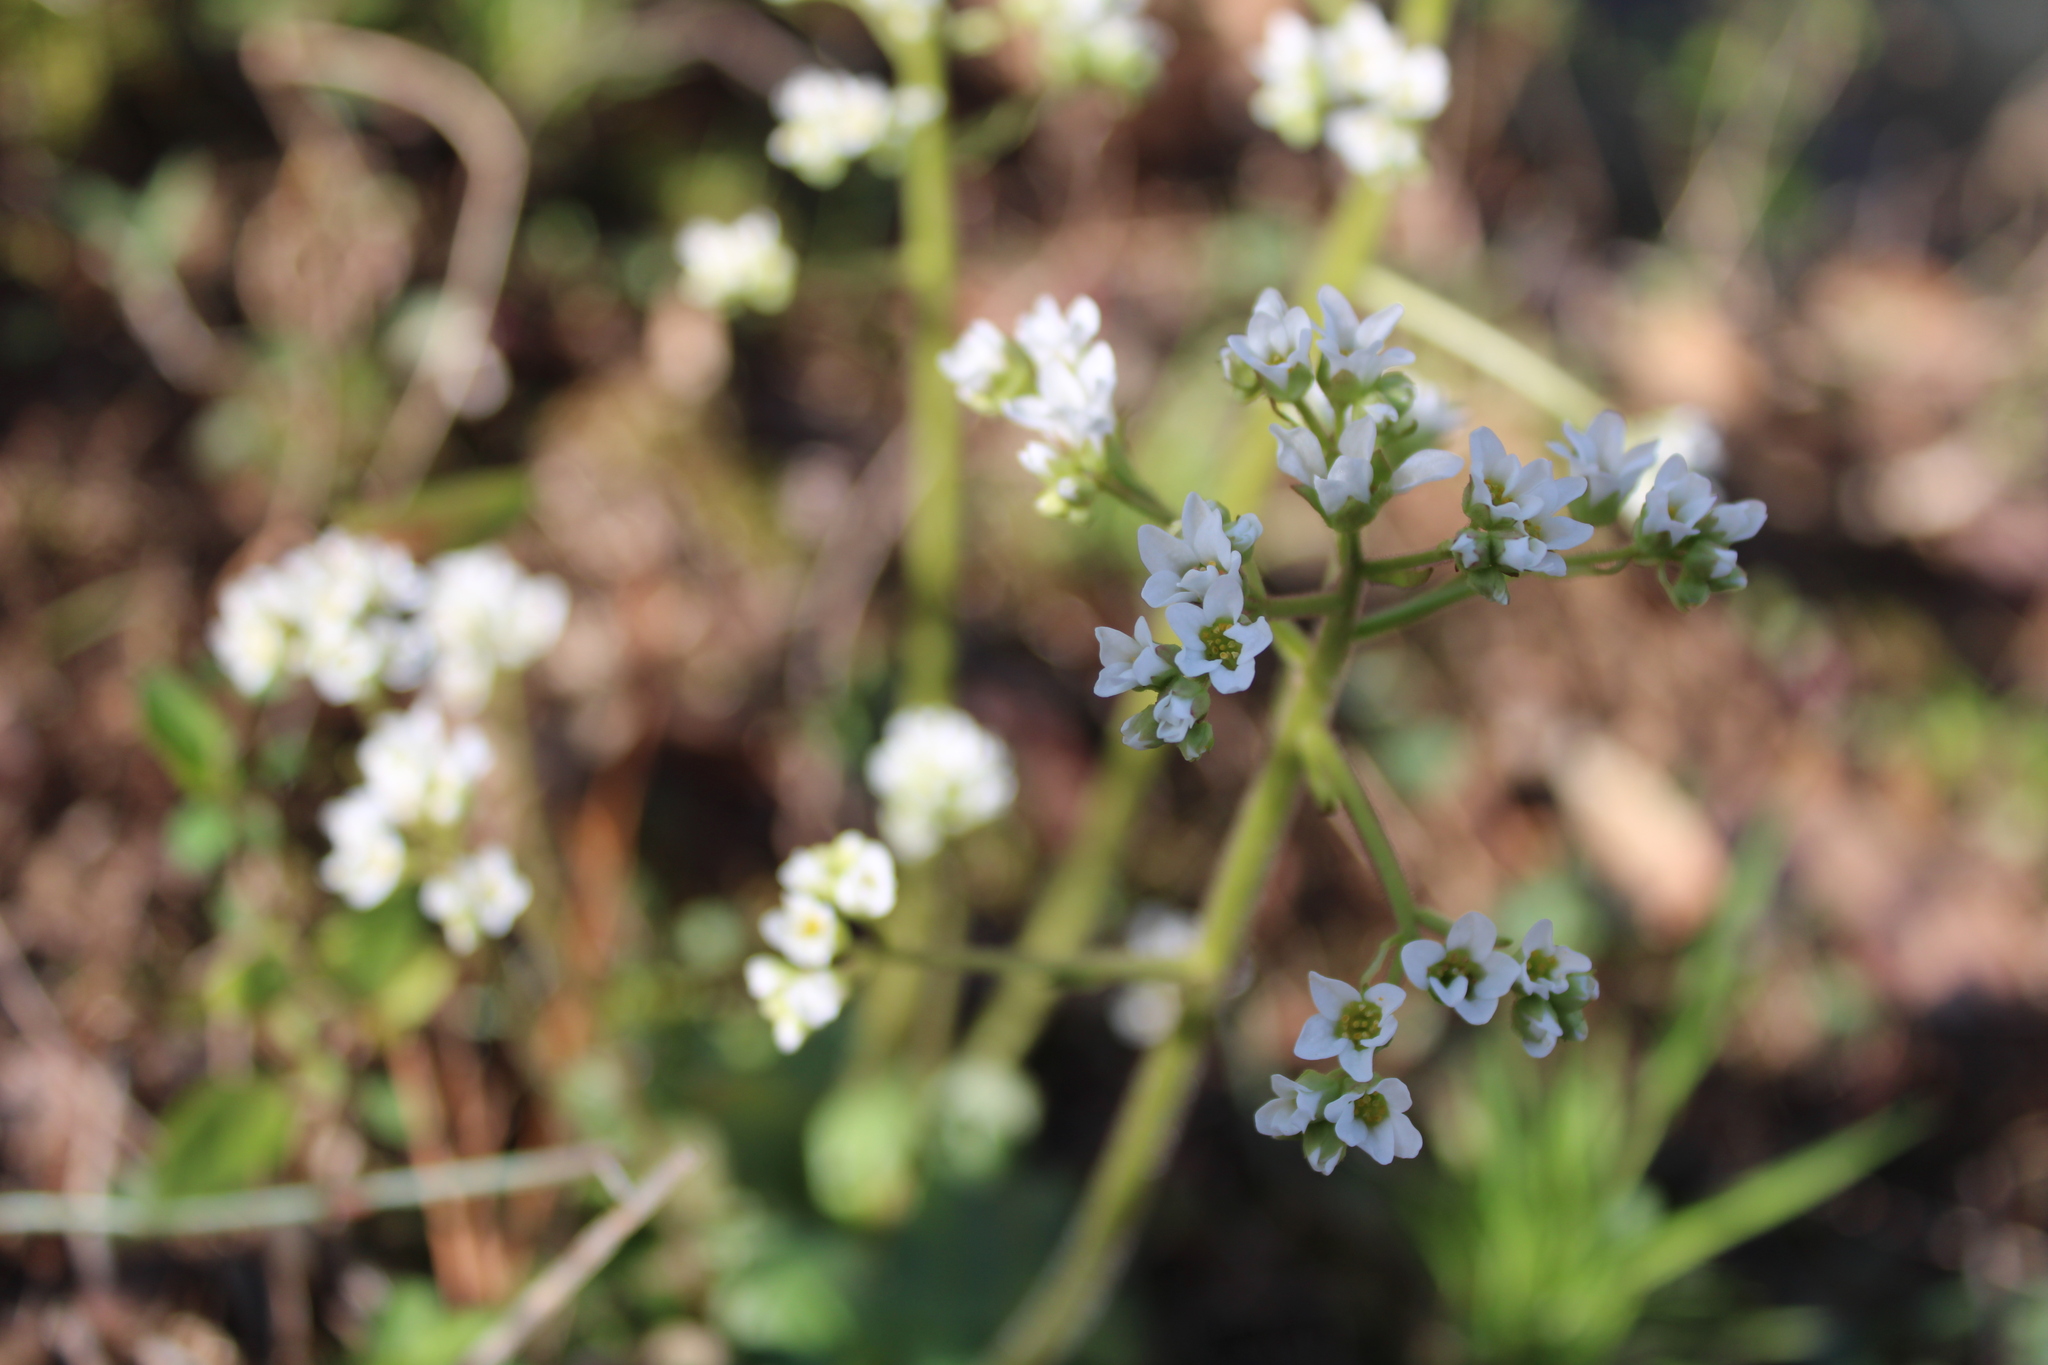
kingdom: Plantae
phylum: Tracheophyta
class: Magnoliopsida
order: Saxifragales
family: Saxifragaceae
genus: Micranthes
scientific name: Micranthes virginiensis
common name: Early saxifrage
